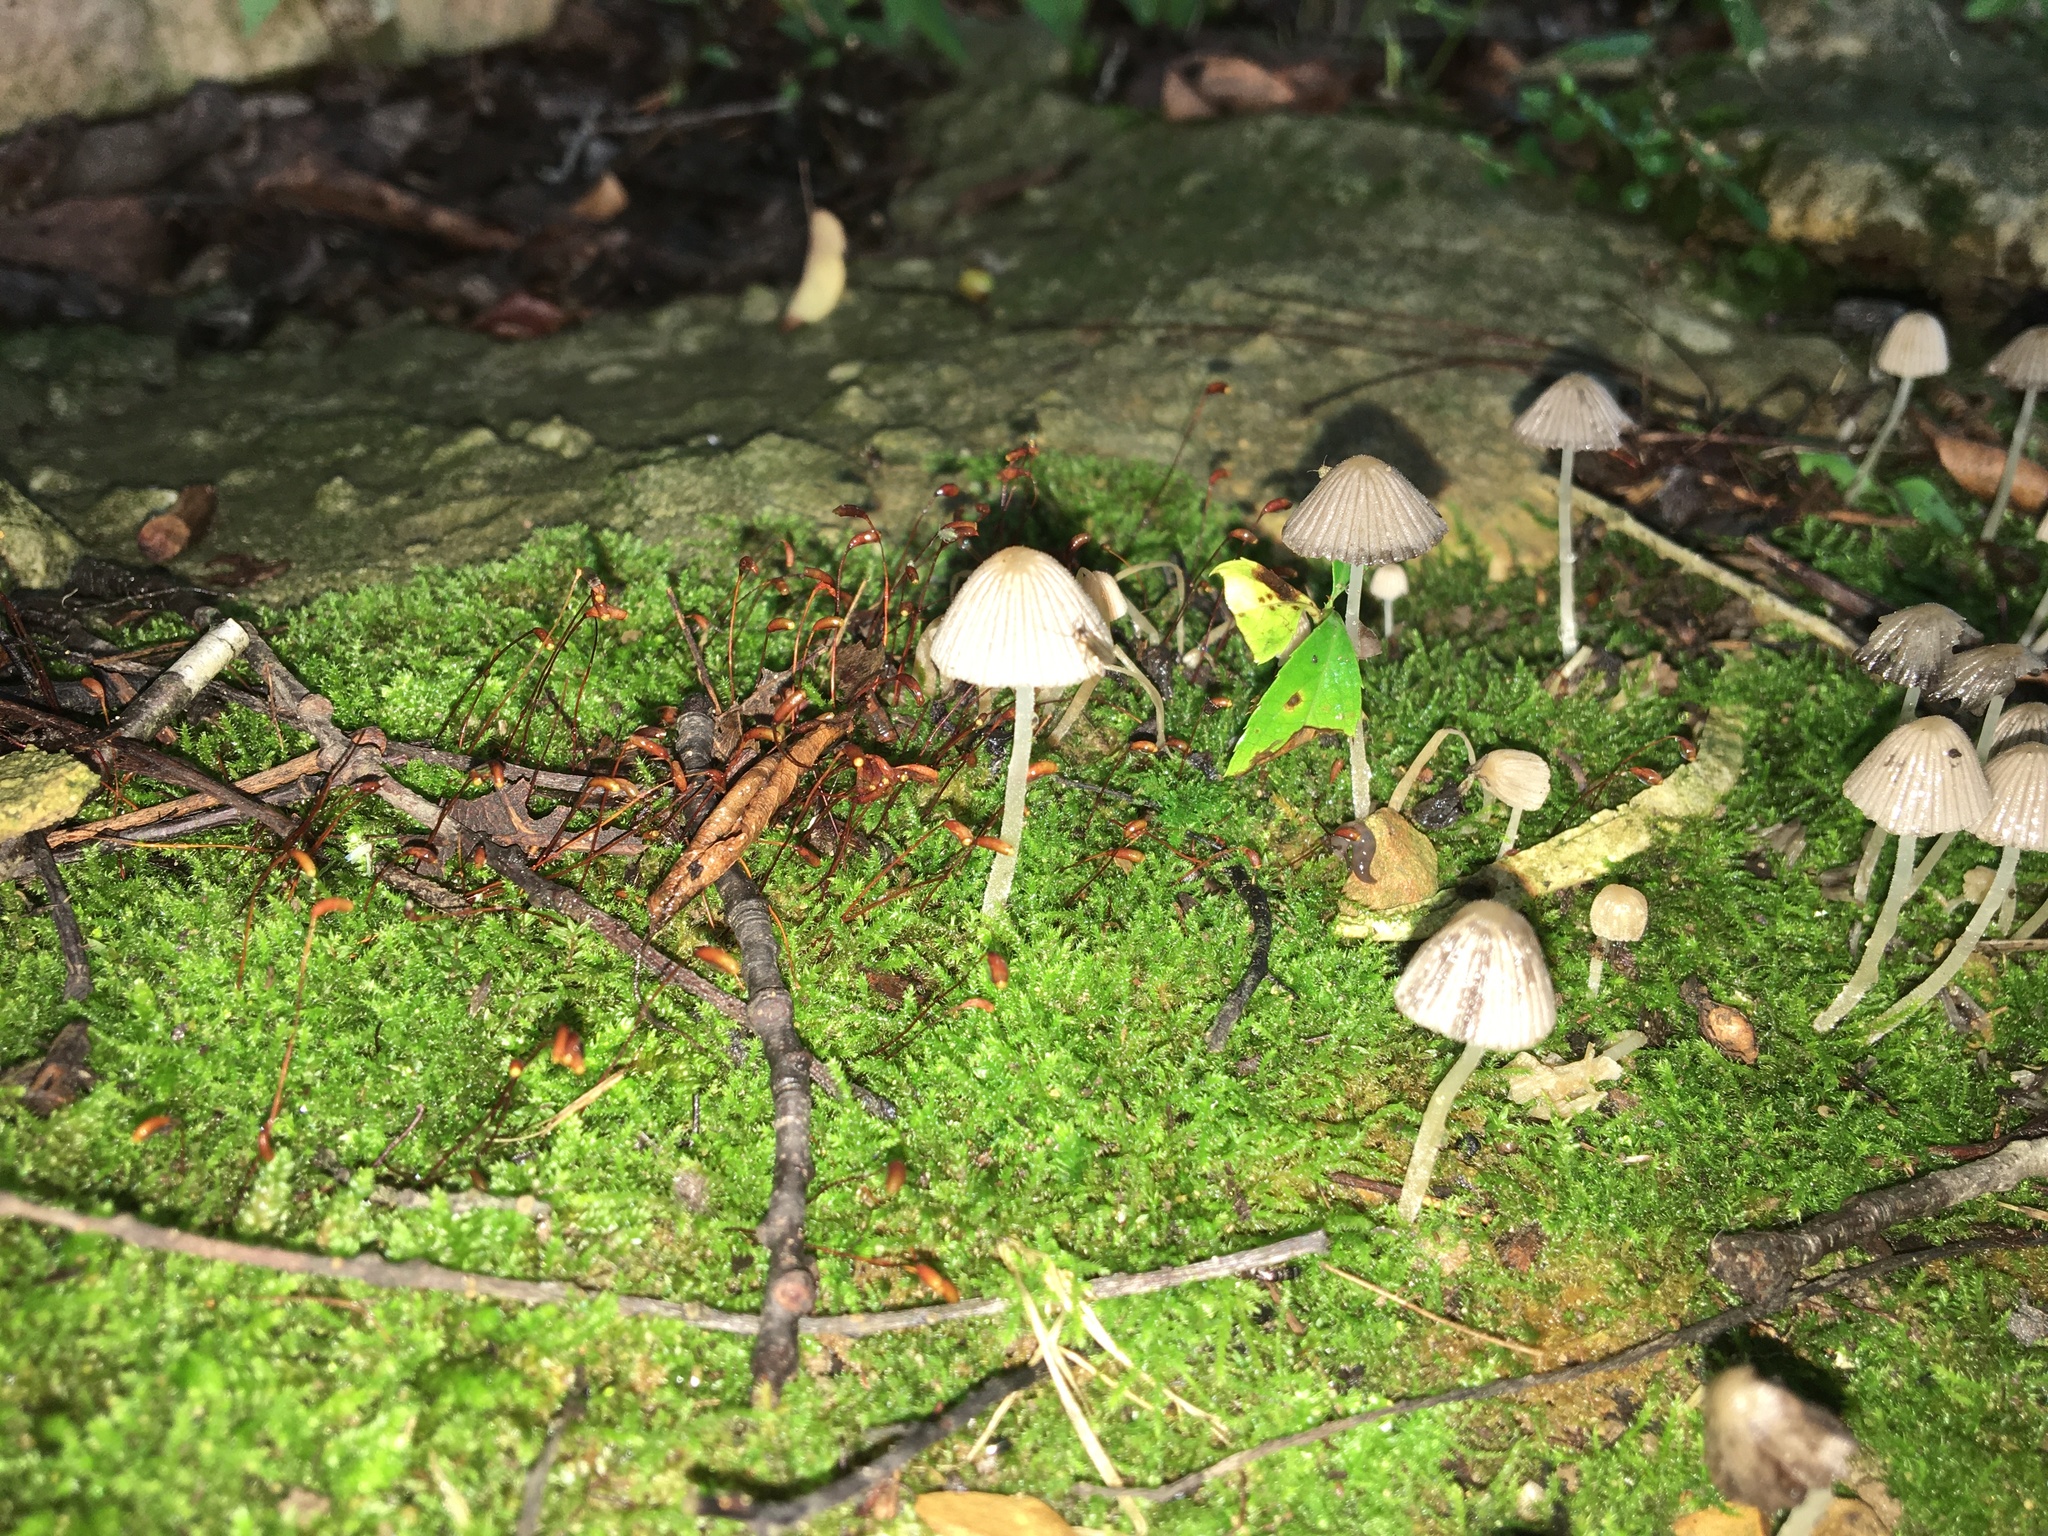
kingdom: Fungi
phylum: Basidiomycota
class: Agaricomycetes
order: Agaricales
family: Psathyrellaceae
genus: Coprinellus
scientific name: Coprinellus disseminatus
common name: Fairies' bonnets
